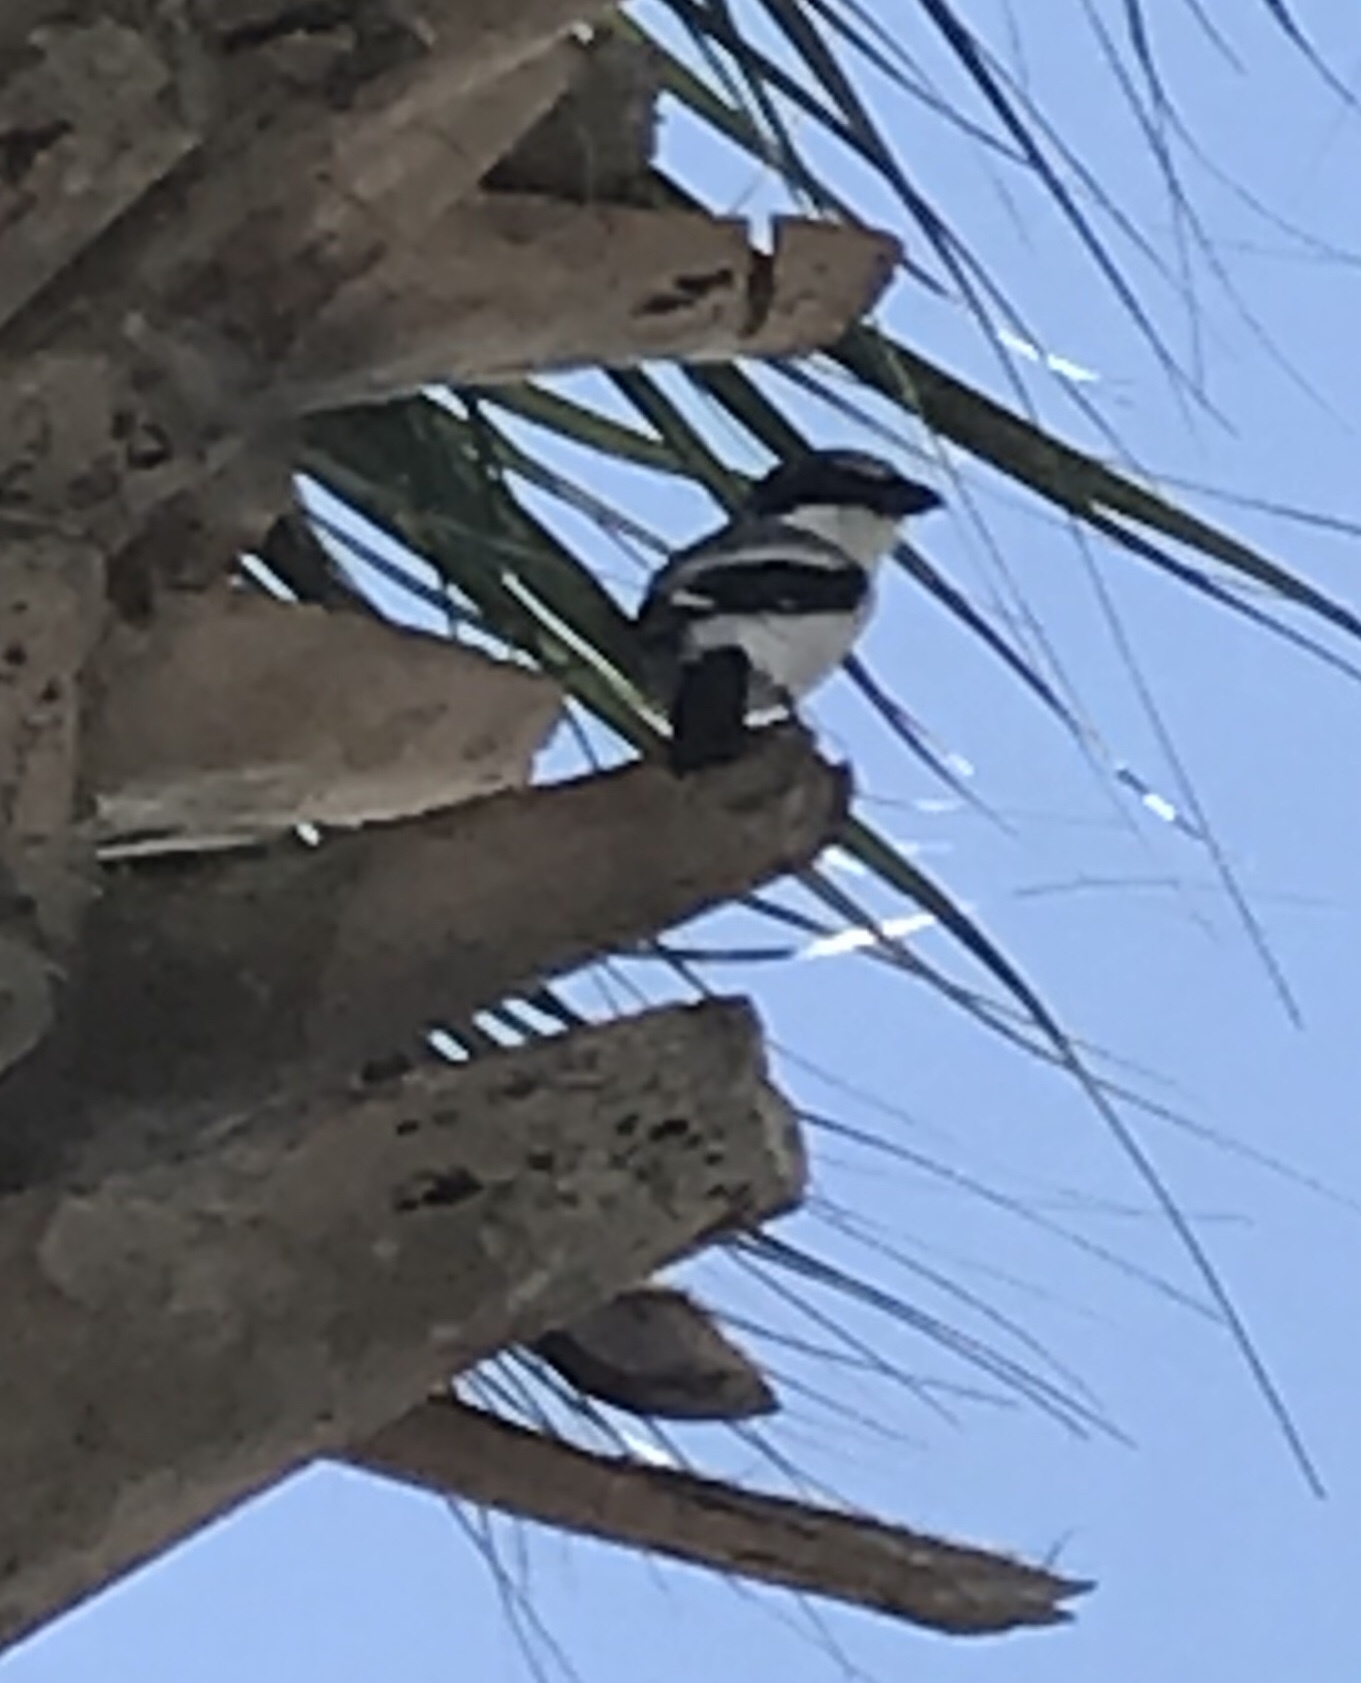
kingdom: Animalia
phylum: Chordata
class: Aves
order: Passeriformes
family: Laniidae
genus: Lanius
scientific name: Lanius ludovicianus
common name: Loggerhead shrike
